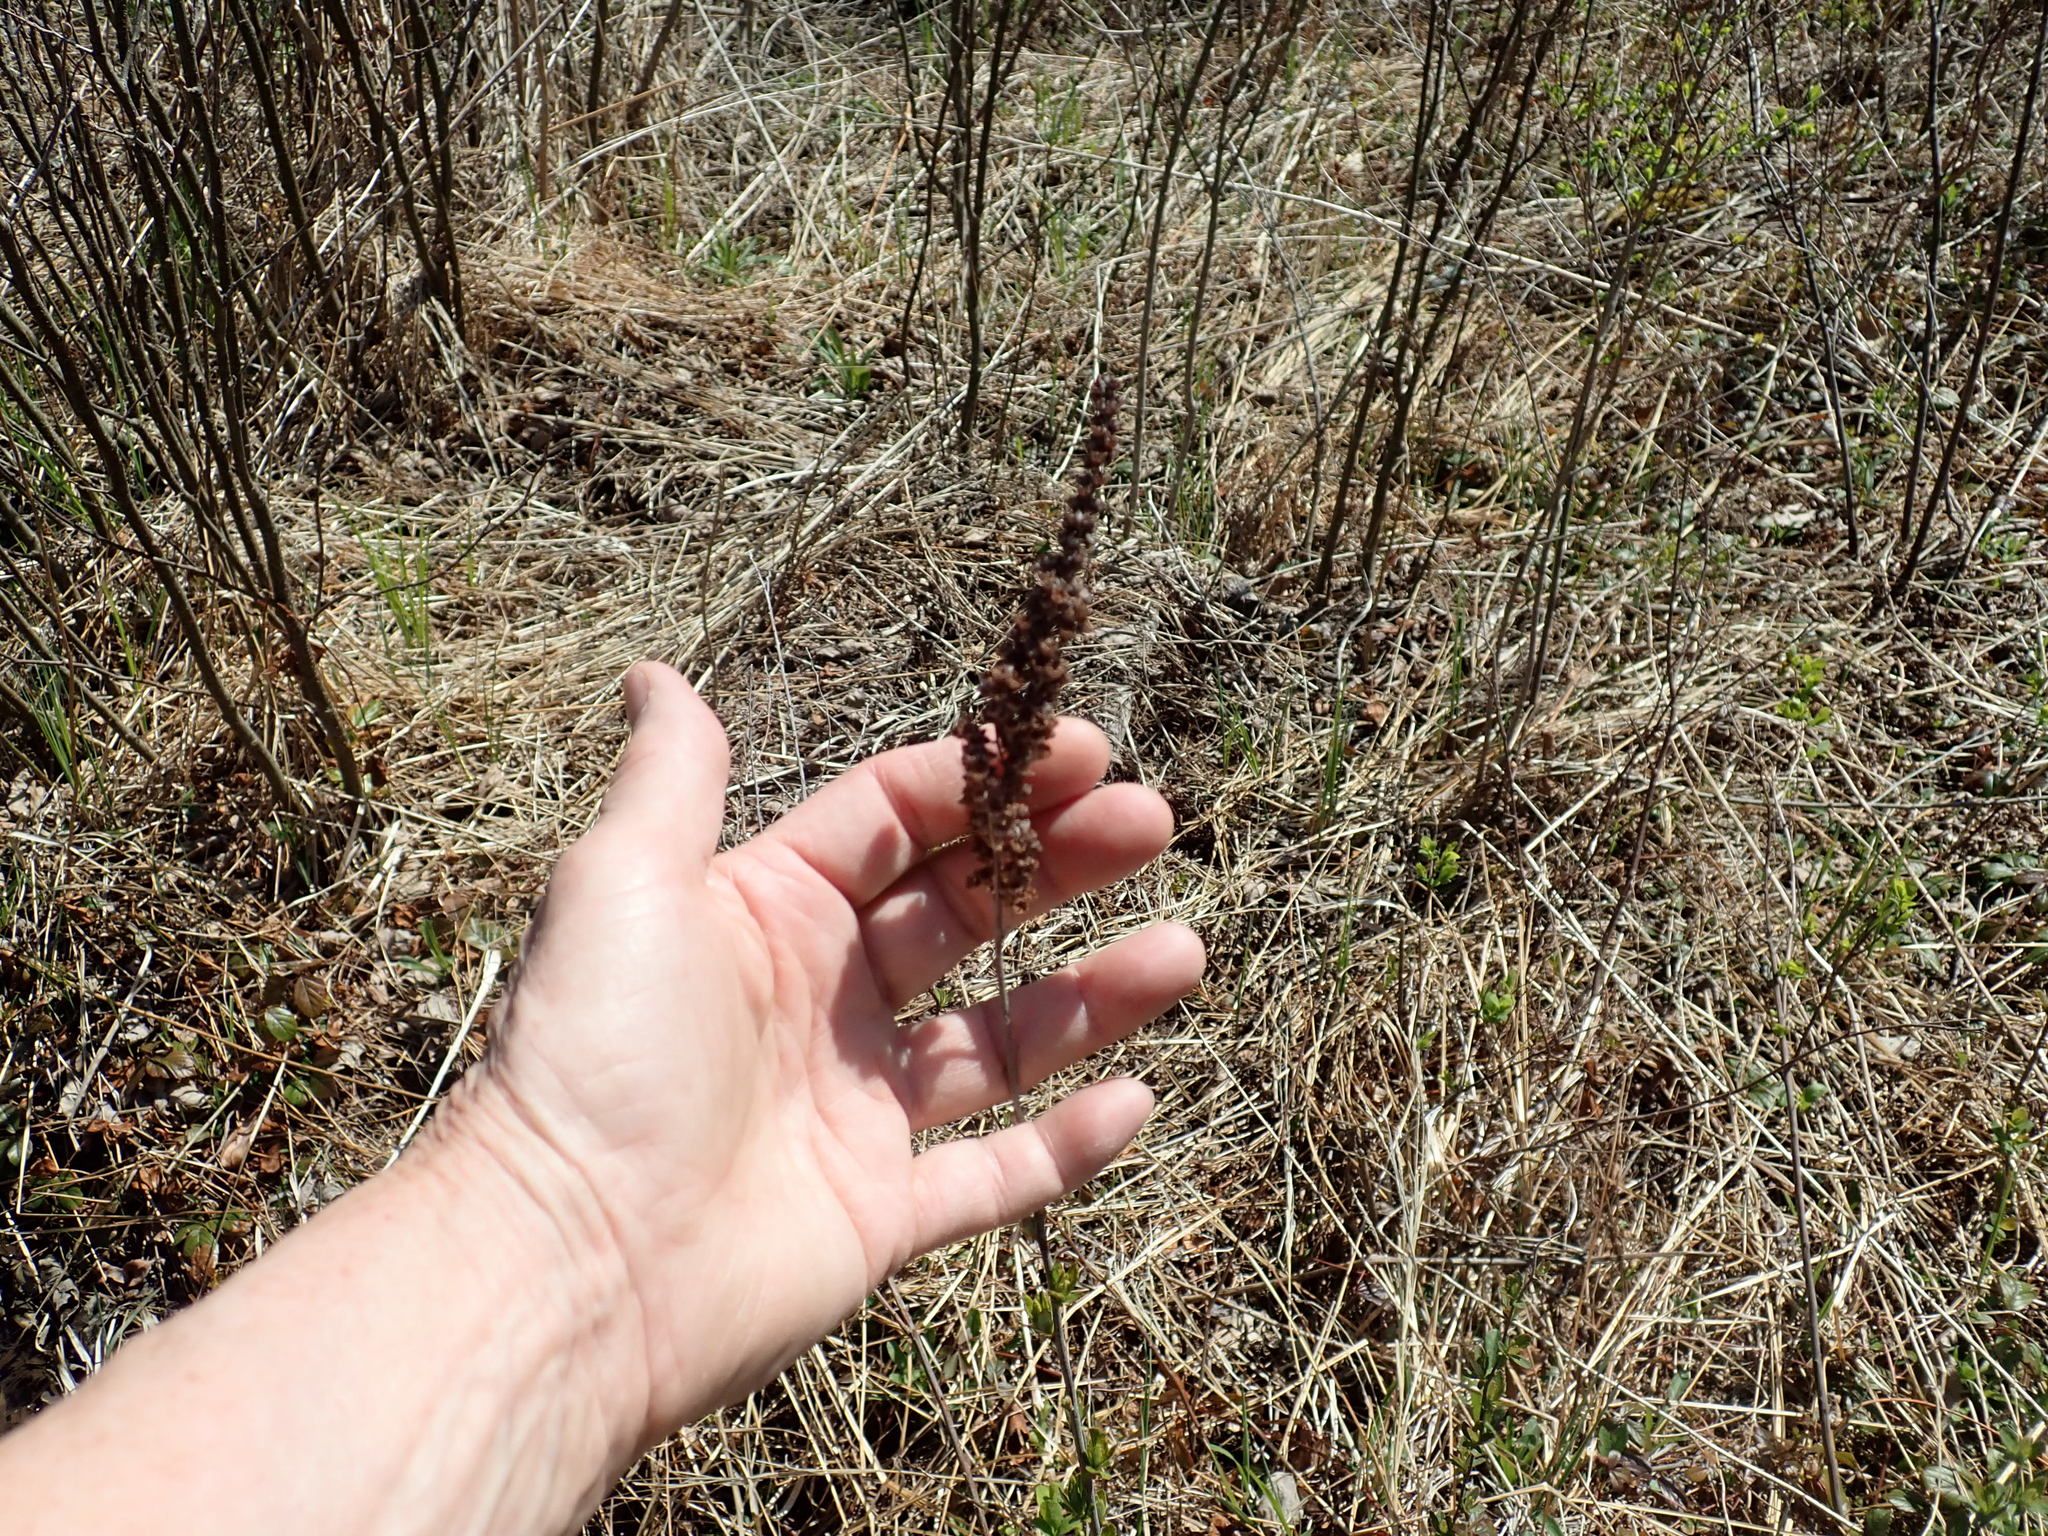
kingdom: Plantae
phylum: Tracheophyta
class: Magnoliopsida
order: Rosales
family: Rosaceae
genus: Spiraea
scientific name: Spiraea tomentosa
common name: Hardhack
